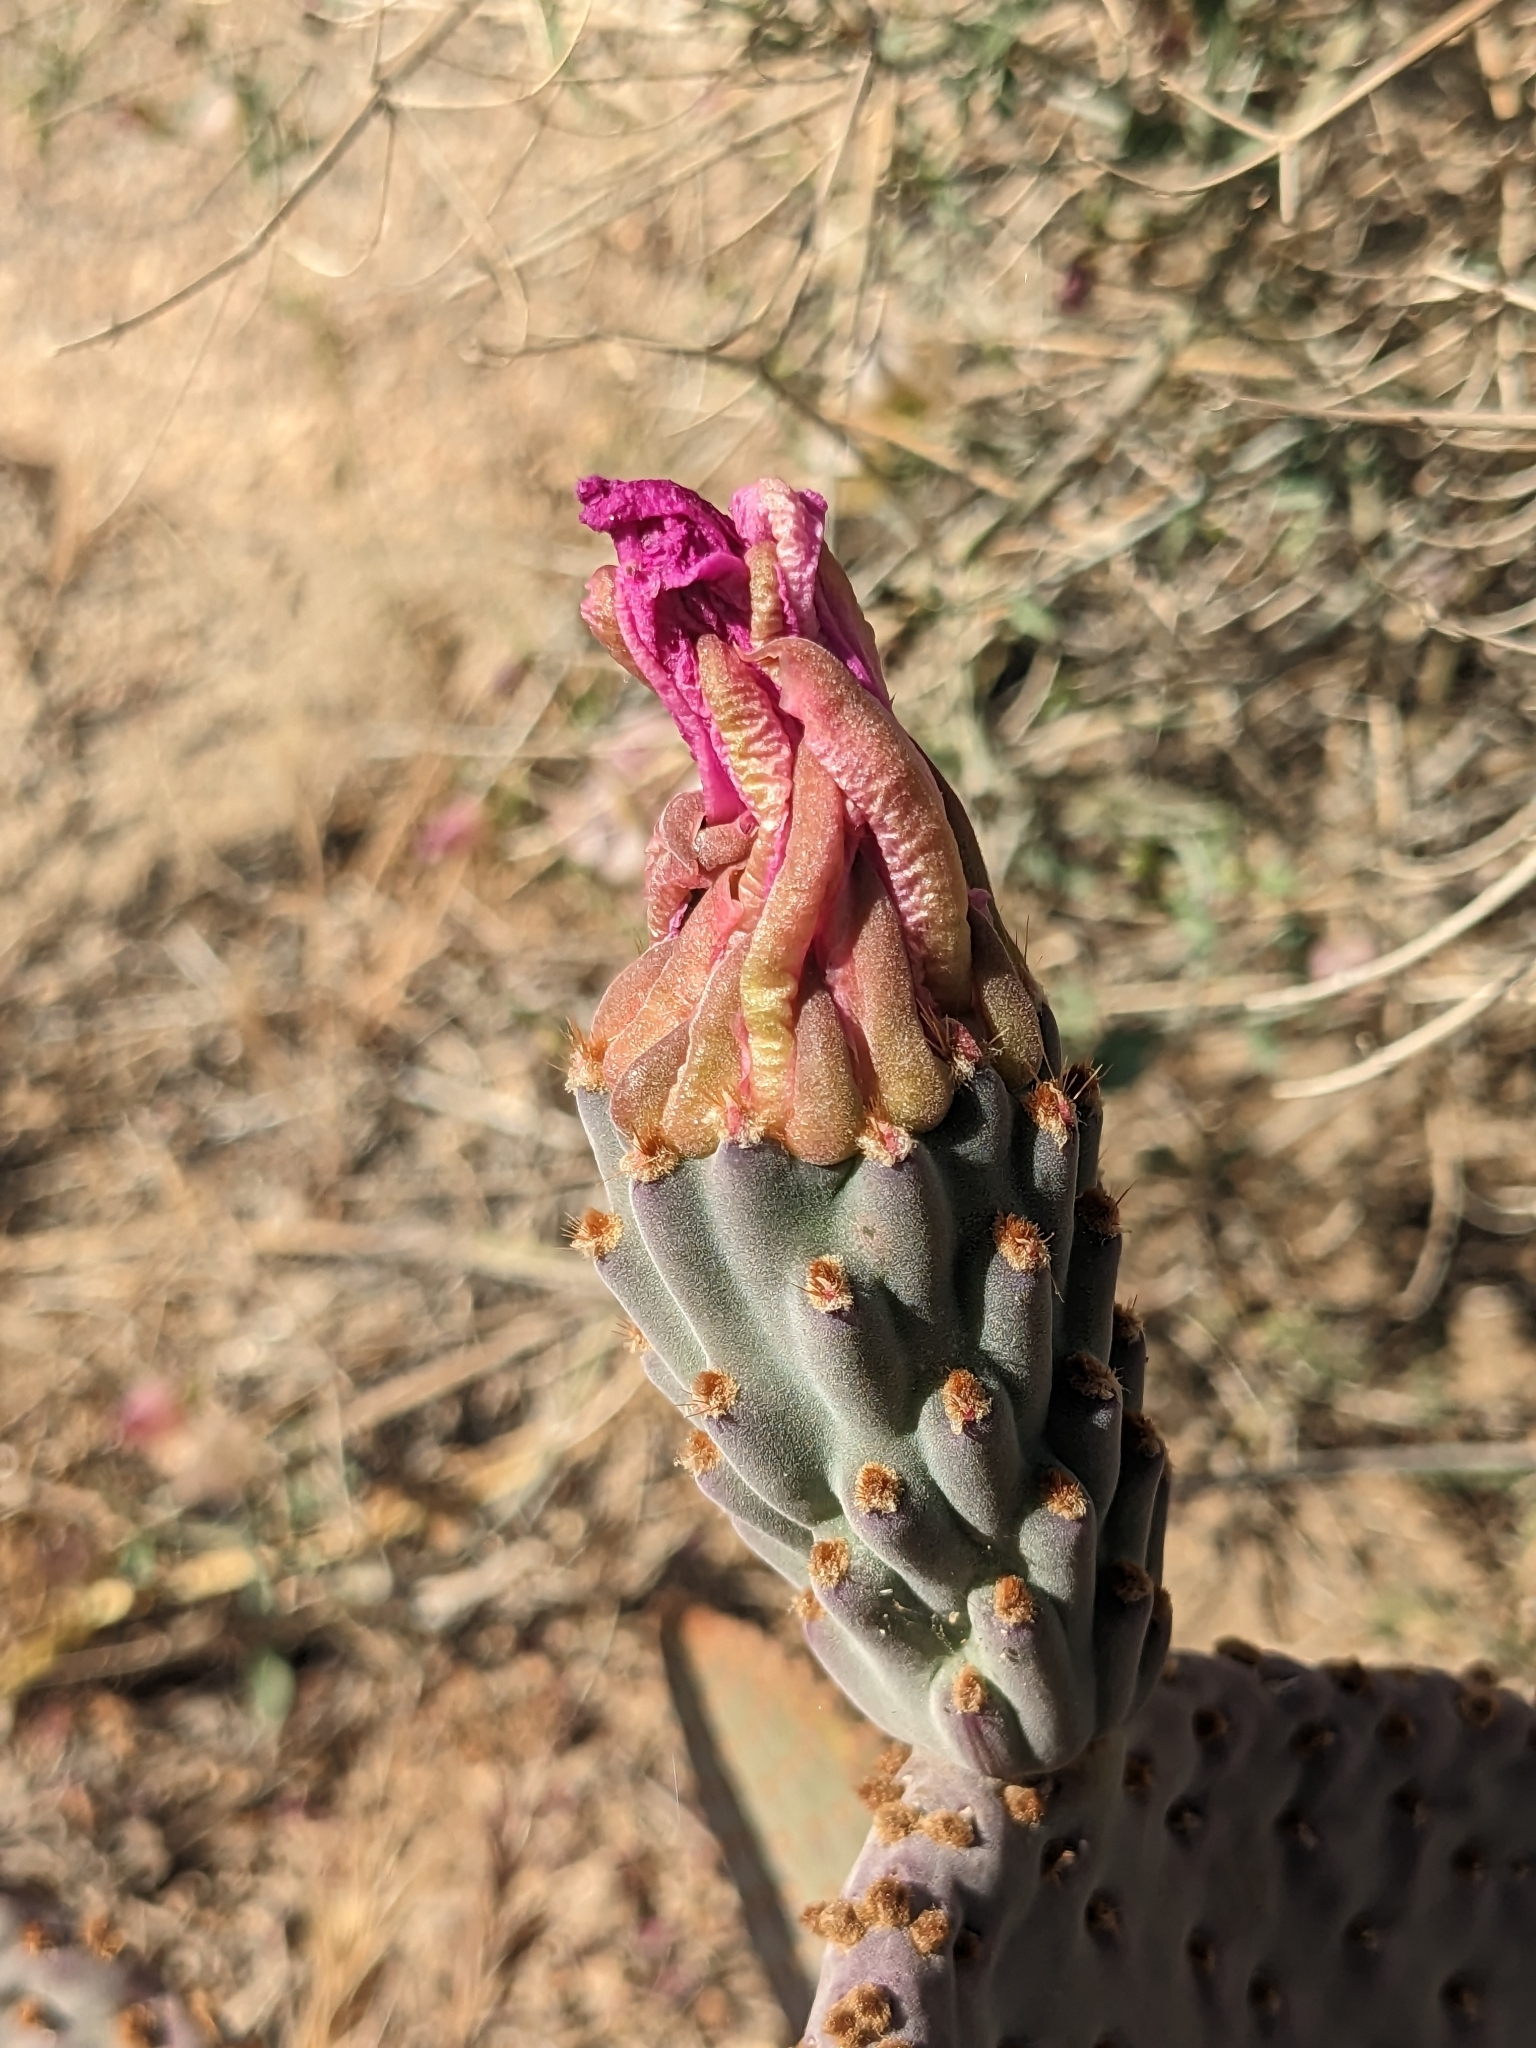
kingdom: Plantae
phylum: Tracheophyta
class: Magnoliopsida
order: Caryophyllales
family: Cactaceae
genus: Opuntia
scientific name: Opuntia basilaris
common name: Beavertail prickly-pear
